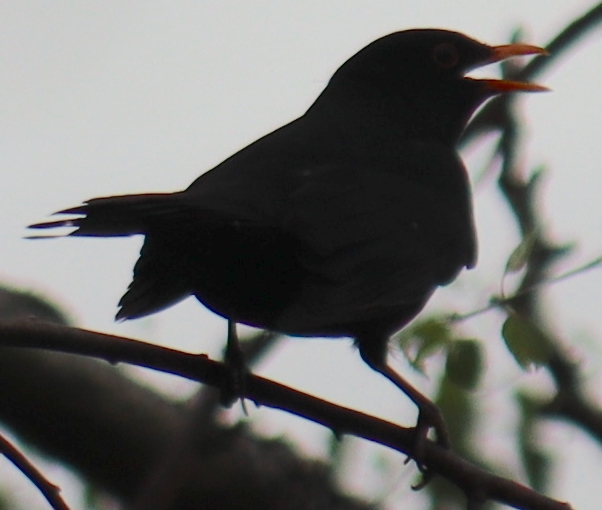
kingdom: Animalia
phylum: Chordata
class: Aves
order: Passeriformes
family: Turdidae
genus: Turdus
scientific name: Turdus merula
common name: Common blackbird
